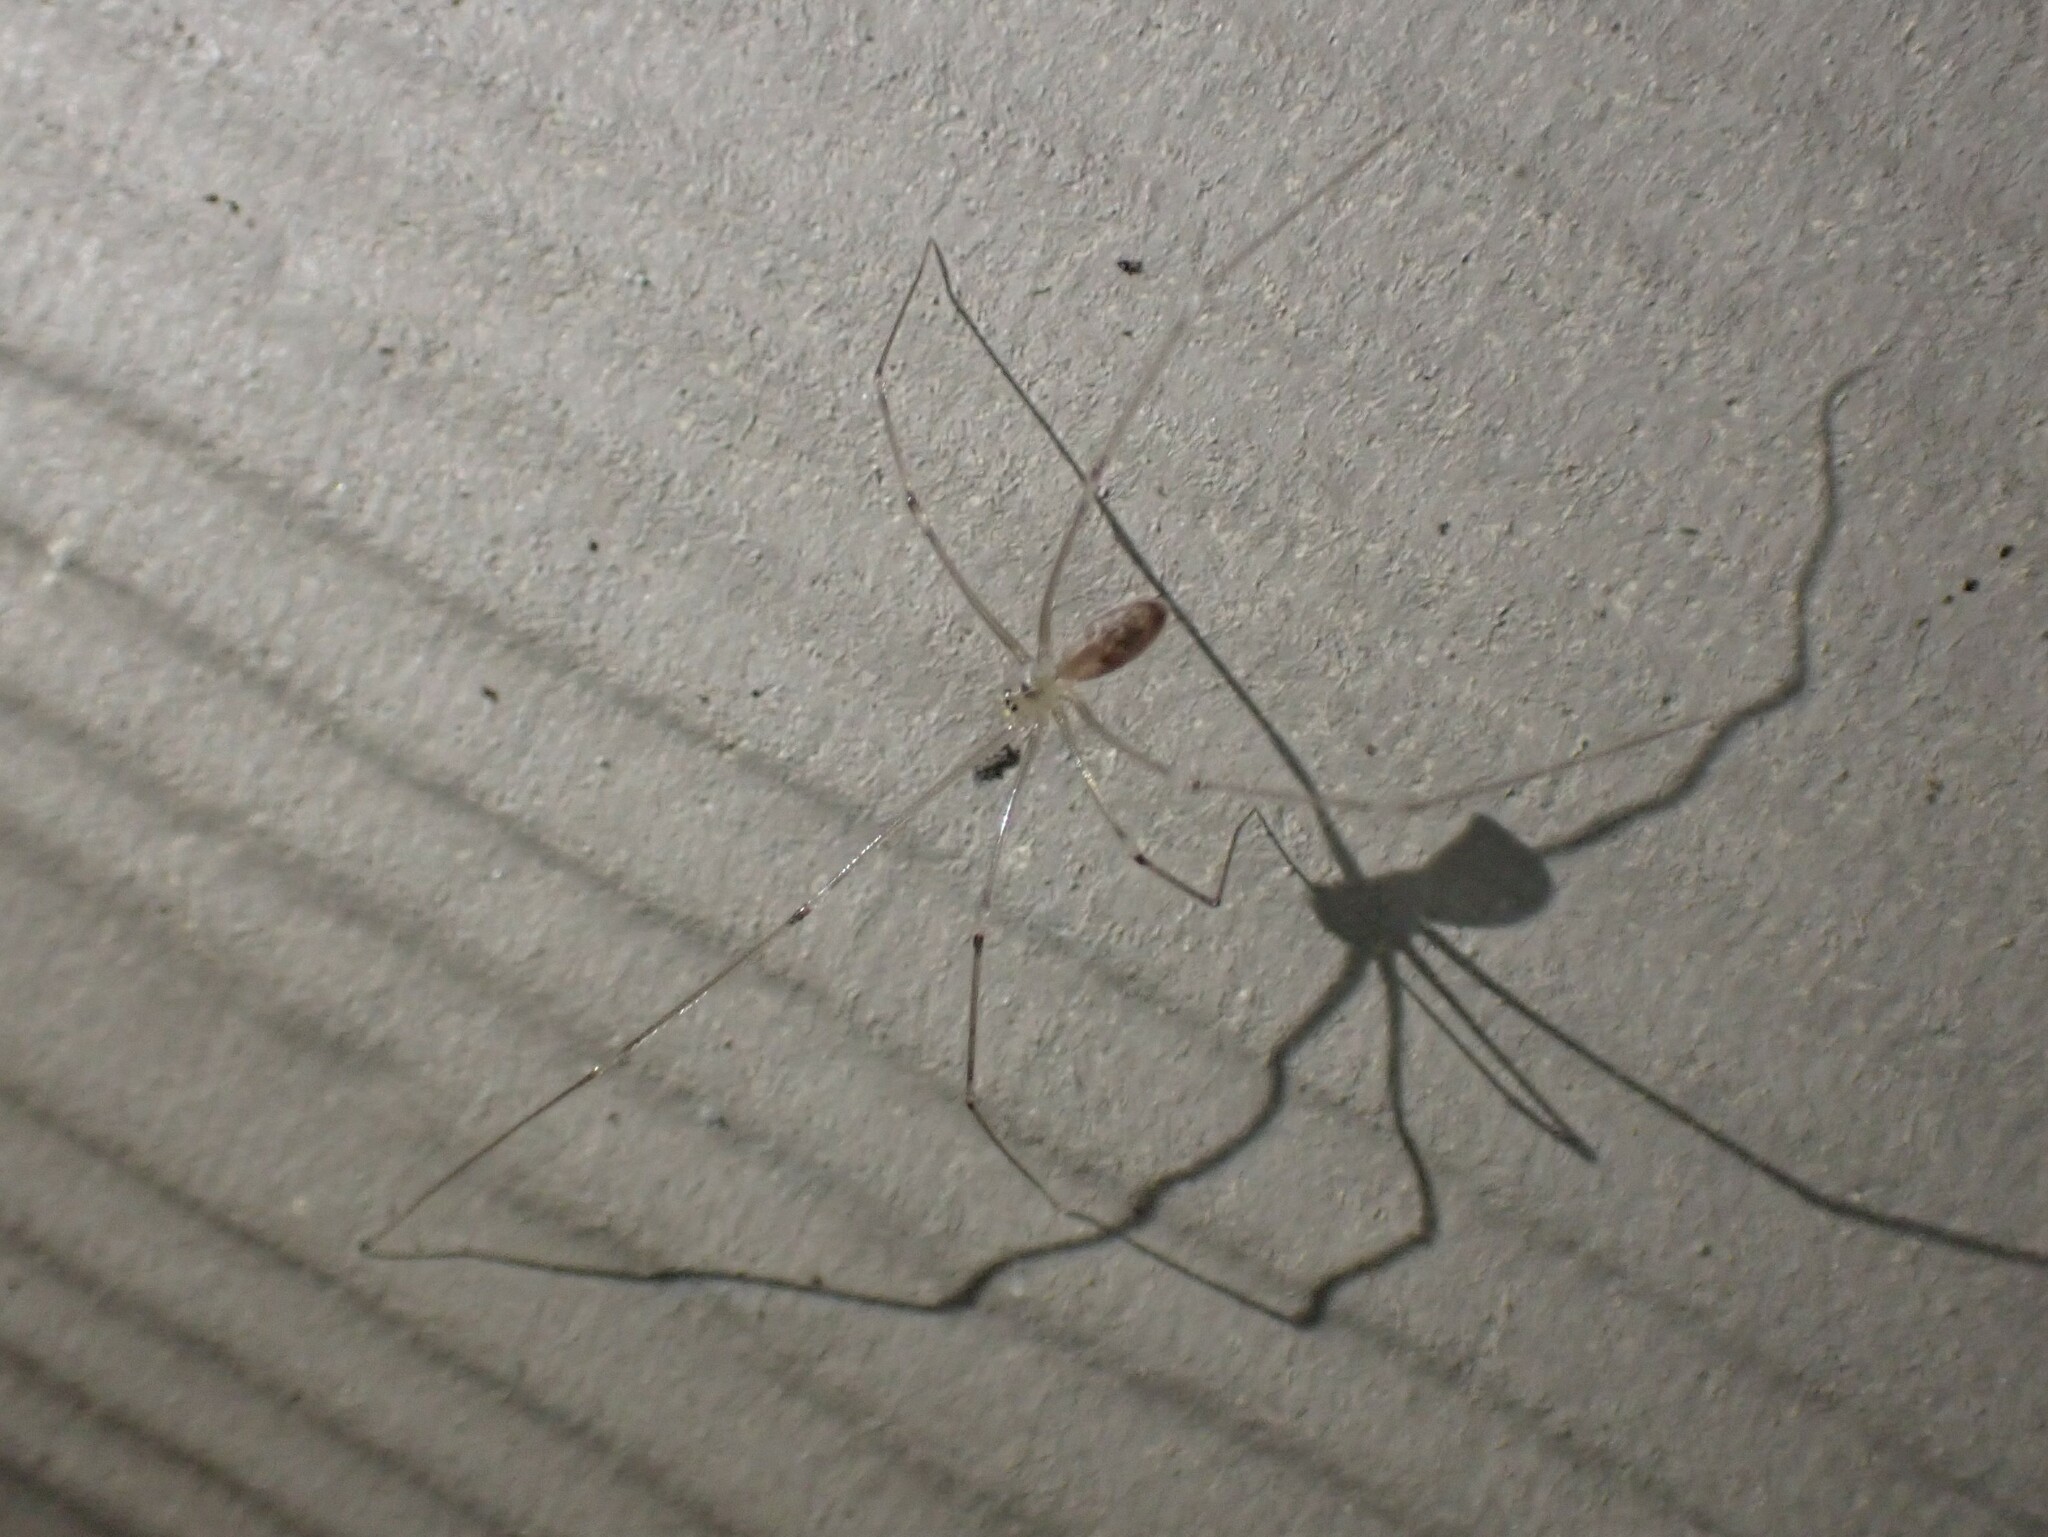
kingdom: Animalia
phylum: Arthropoda
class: Arachnida
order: Araneae
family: Pholcidae
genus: Pholcus
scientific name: Pholcus phalangioides
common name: Longbodied cellar spider
